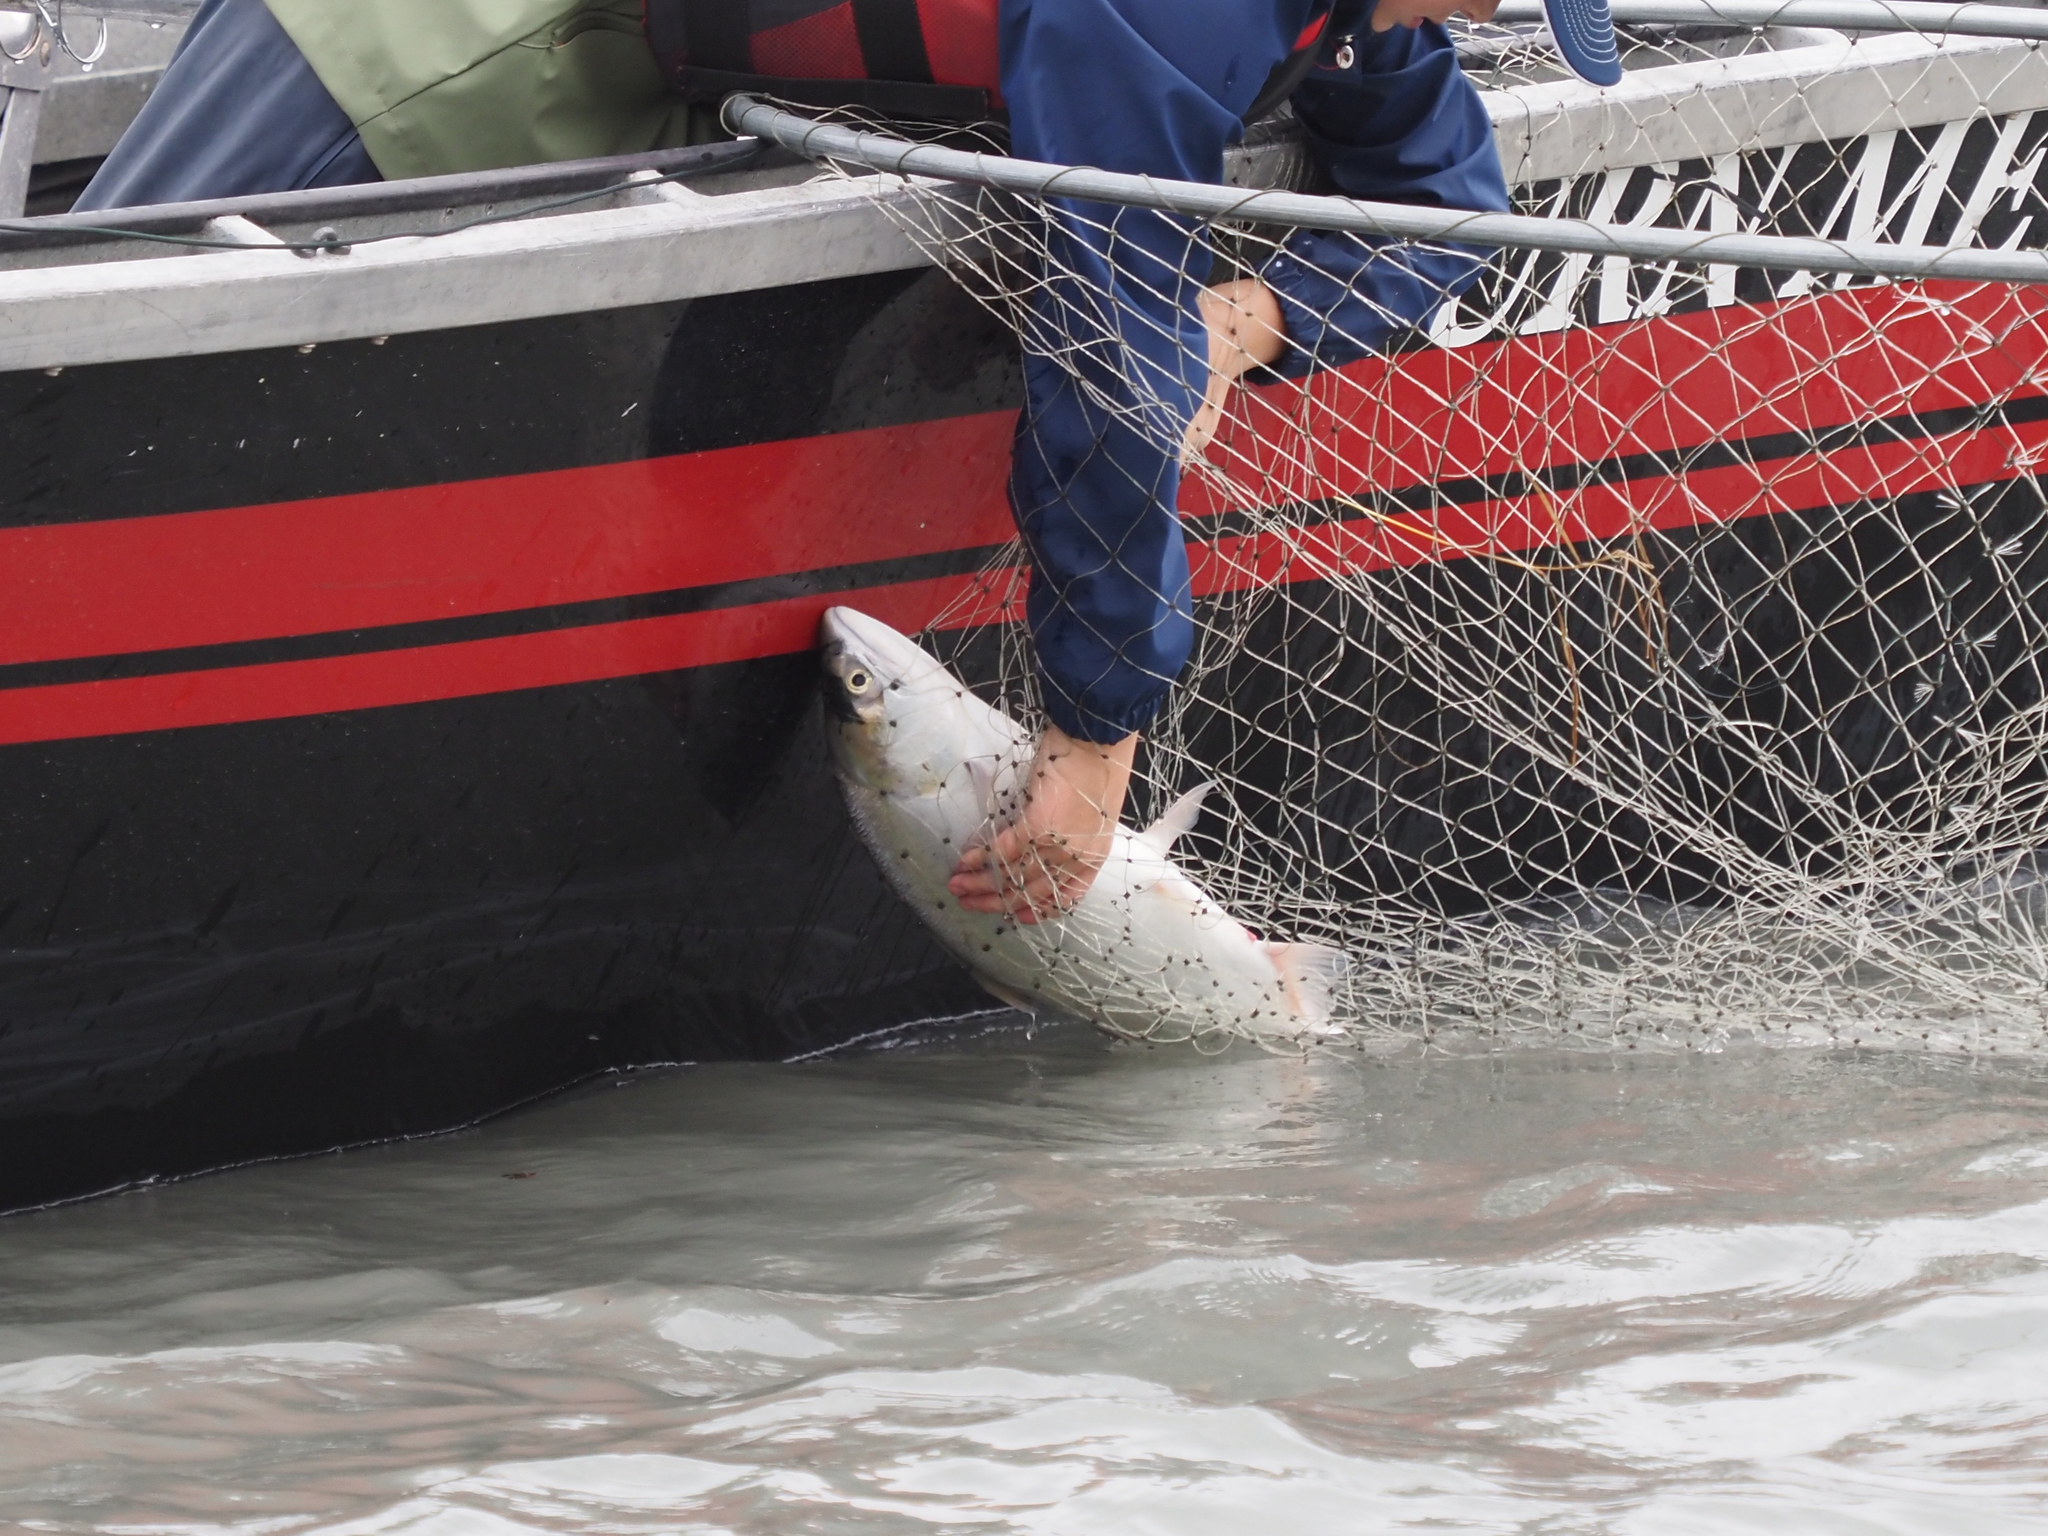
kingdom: Animalia
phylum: Chordata
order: Salmoniformes
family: Salmonidae
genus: Oncorhynchus
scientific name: Oncorhynchus nerka
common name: Sockeye salmon
